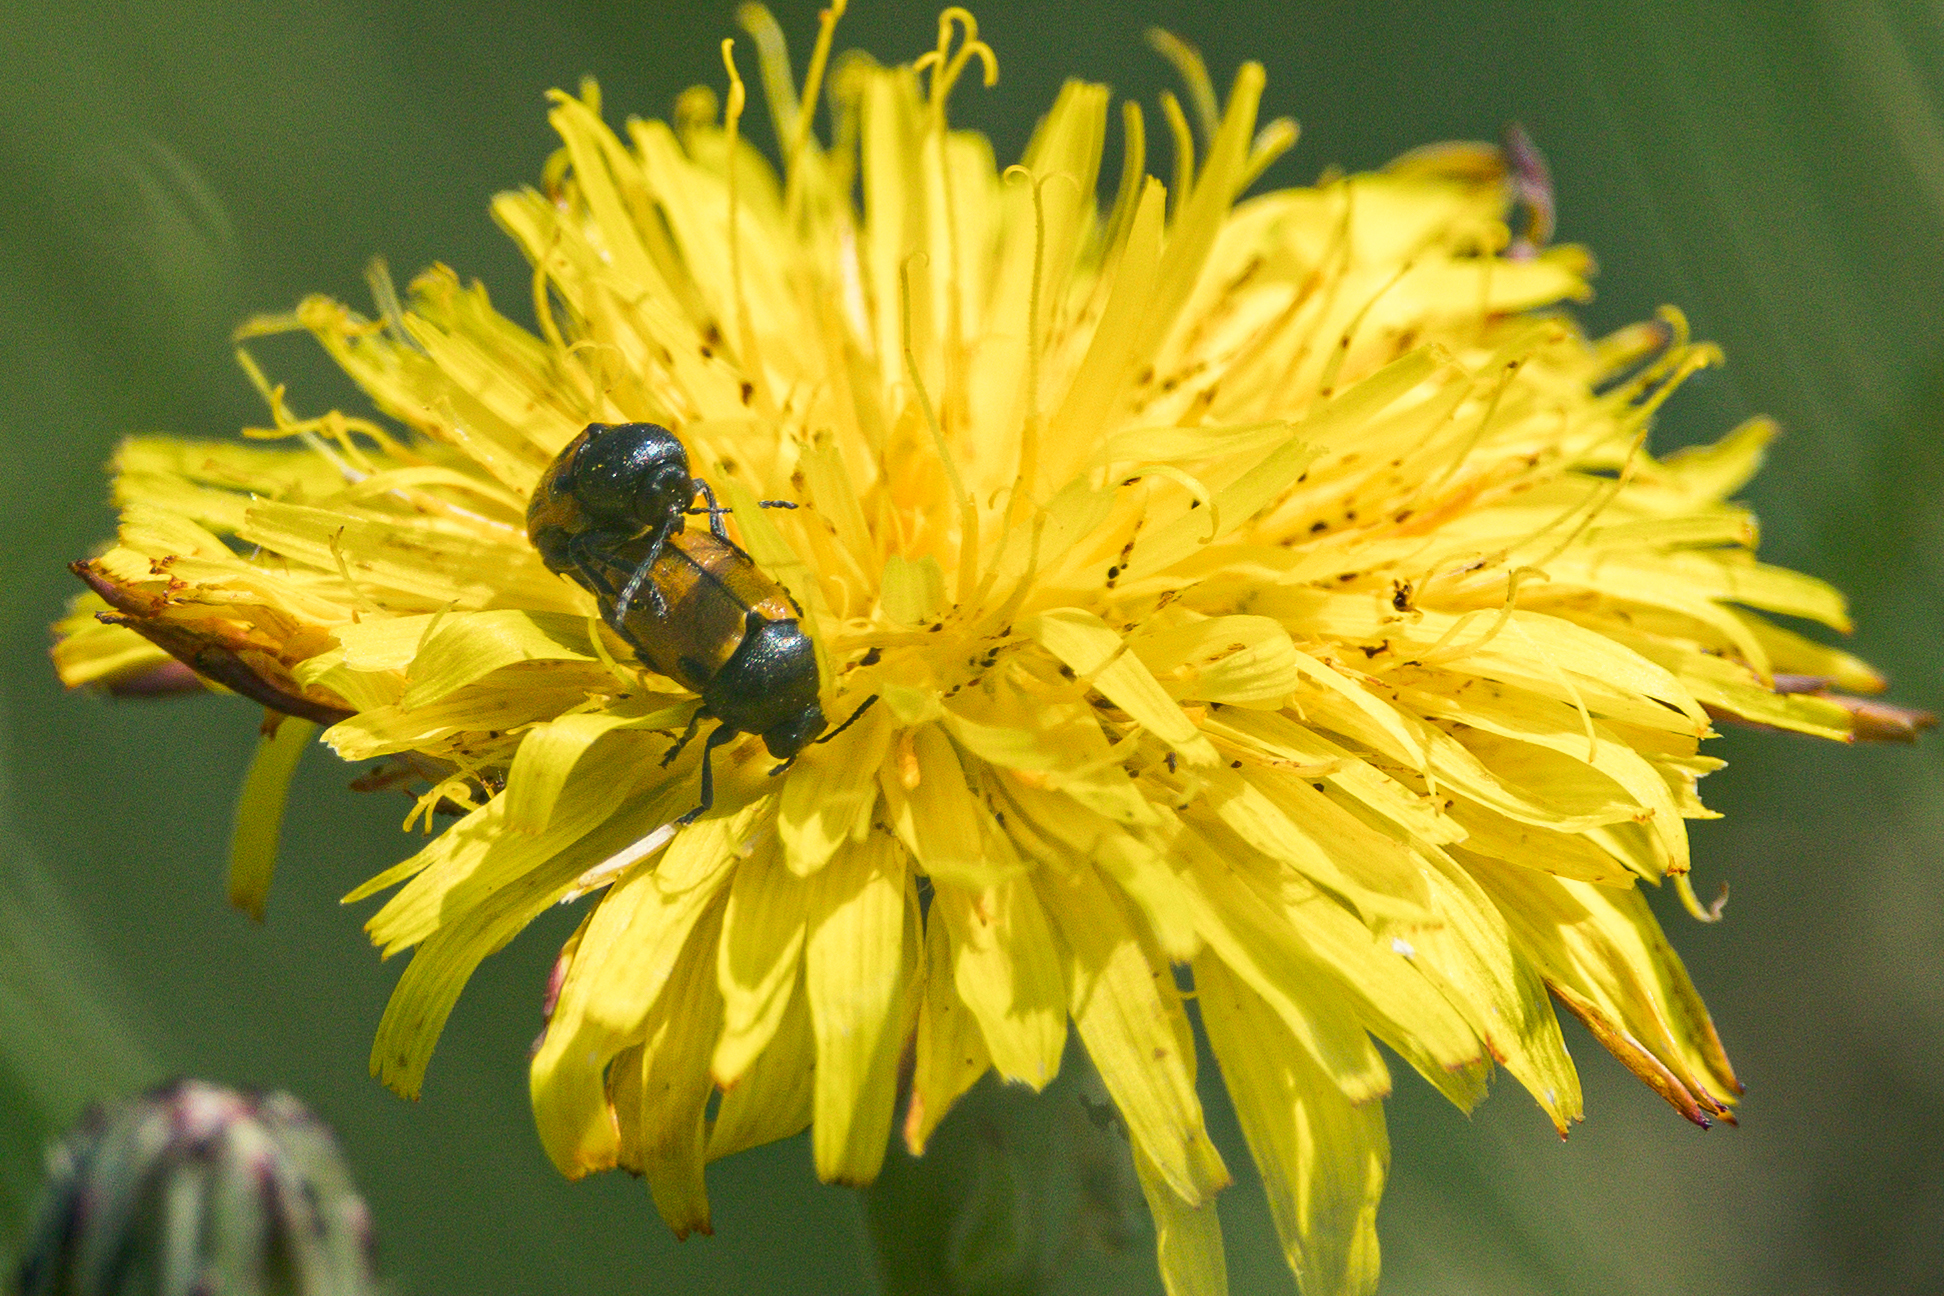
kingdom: Animalia
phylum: Arthropoda
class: Insecta
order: Coleoptera
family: Chrysomelidae
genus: Cryptocephalus
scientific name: Cryptocephalus rugicollis
